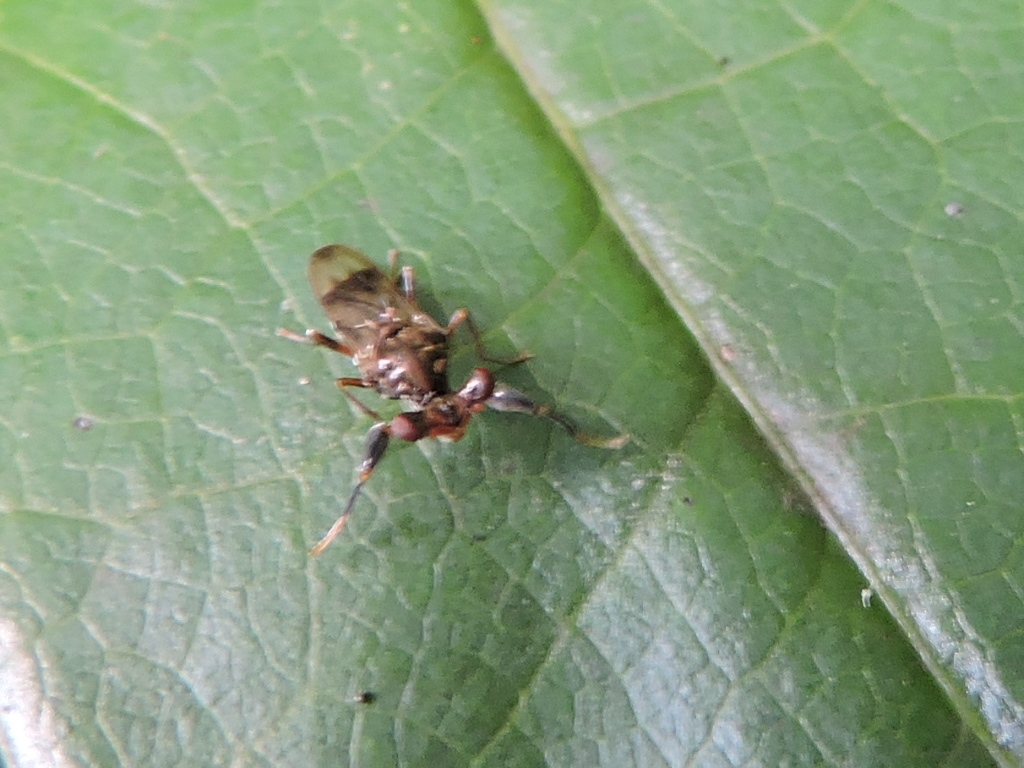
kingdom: Animalia
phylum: Arthropoda
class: Insecta
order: Diptera
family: Diopsidae
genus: Sphyracephala
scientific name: Sphyracephala brevicornis
